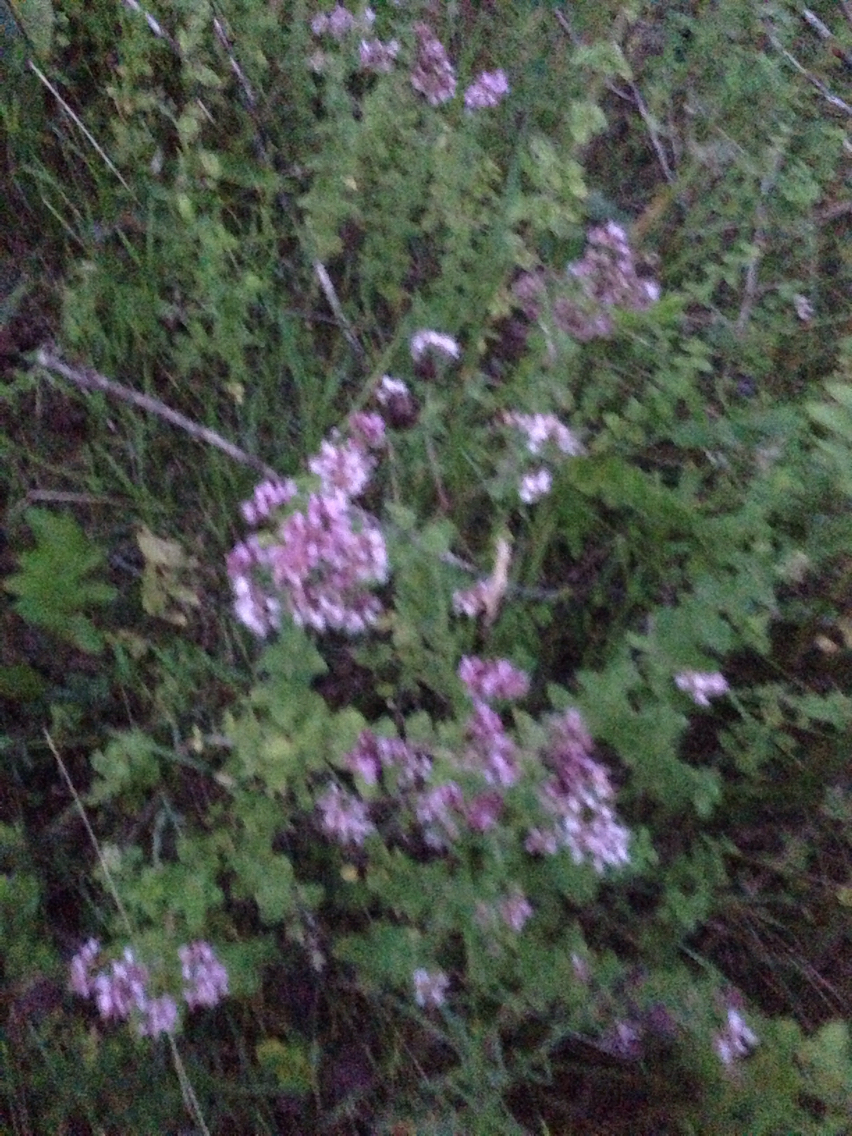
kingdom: Plantae
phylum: Tracheophyta
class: Magnoliopsida
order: Lamiales
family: Lamiaceae
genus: Origanum
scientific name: Origanum vulgare
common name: Wild marjoram
